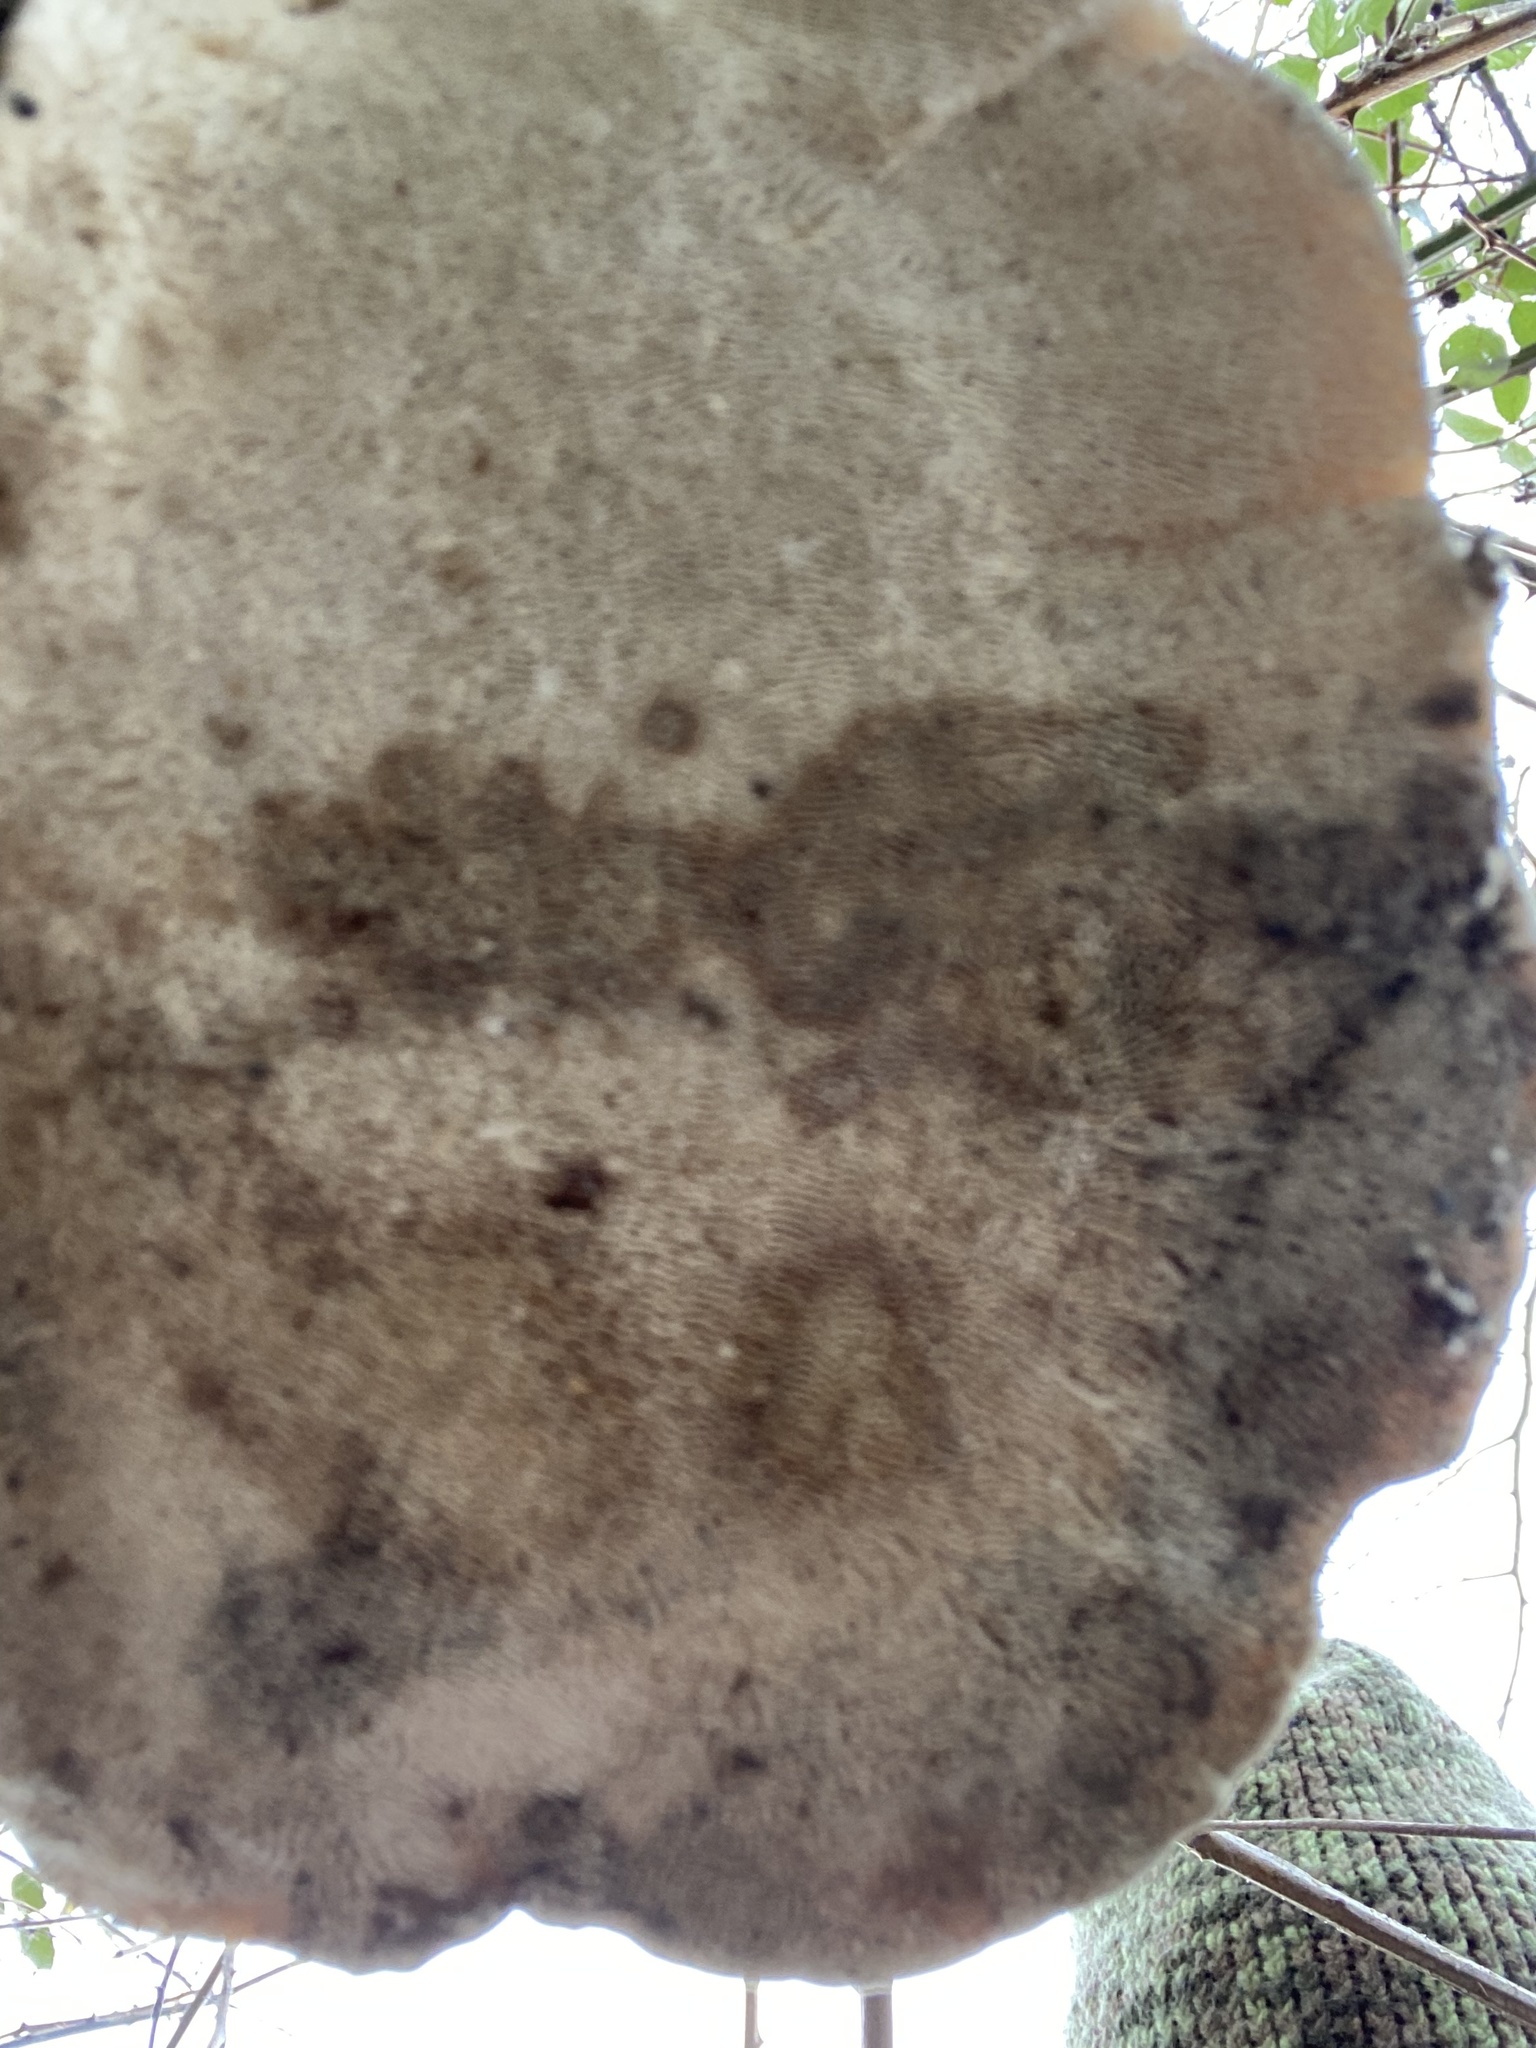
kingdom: Fungi
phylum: Basidiomycota
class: Agaricomycetes
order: Polyporales
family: Polyporaceae
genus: Trametes
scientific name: Trametes gibbosa
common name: Lumpy bracket
